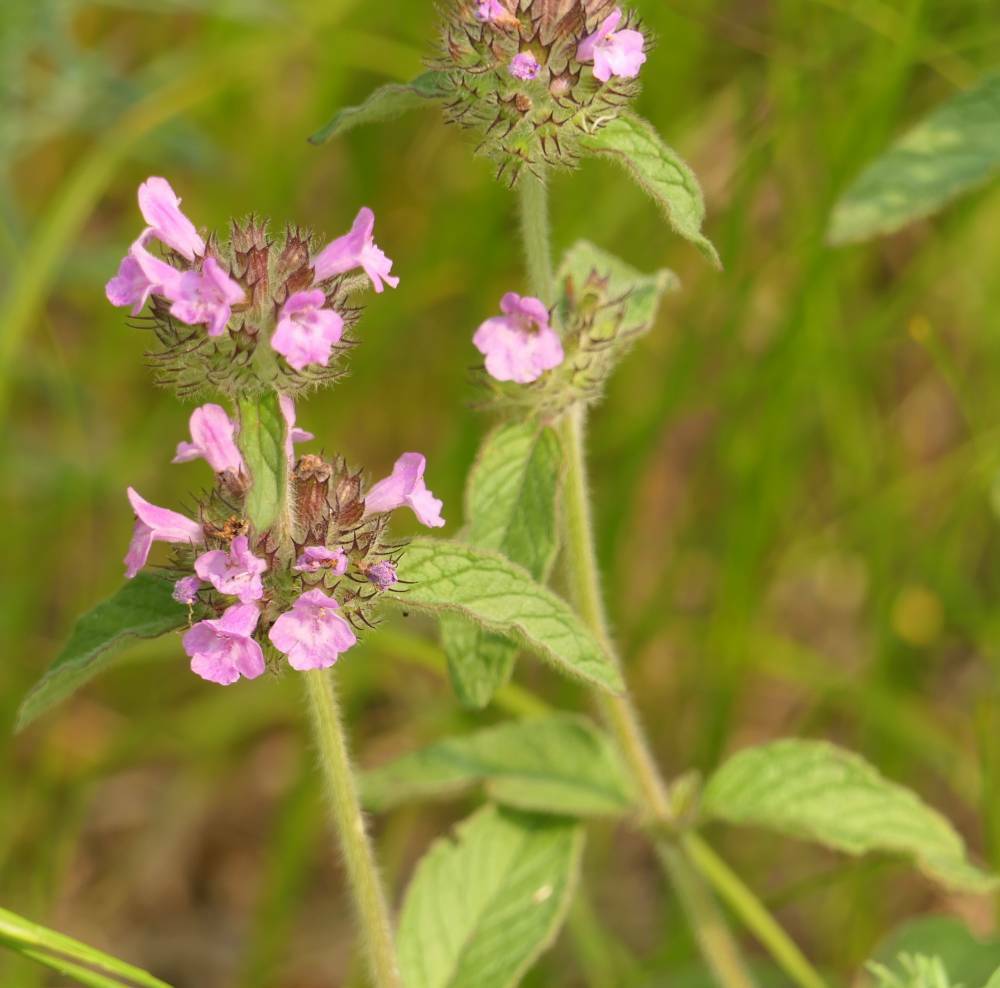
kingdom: Plantae
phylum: Tracheophyta
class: Magnoliopsida
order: Lamiales
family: Lamiaceae
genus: Clinopodium
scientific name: Clinopodium vulgare
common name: Wild basil
